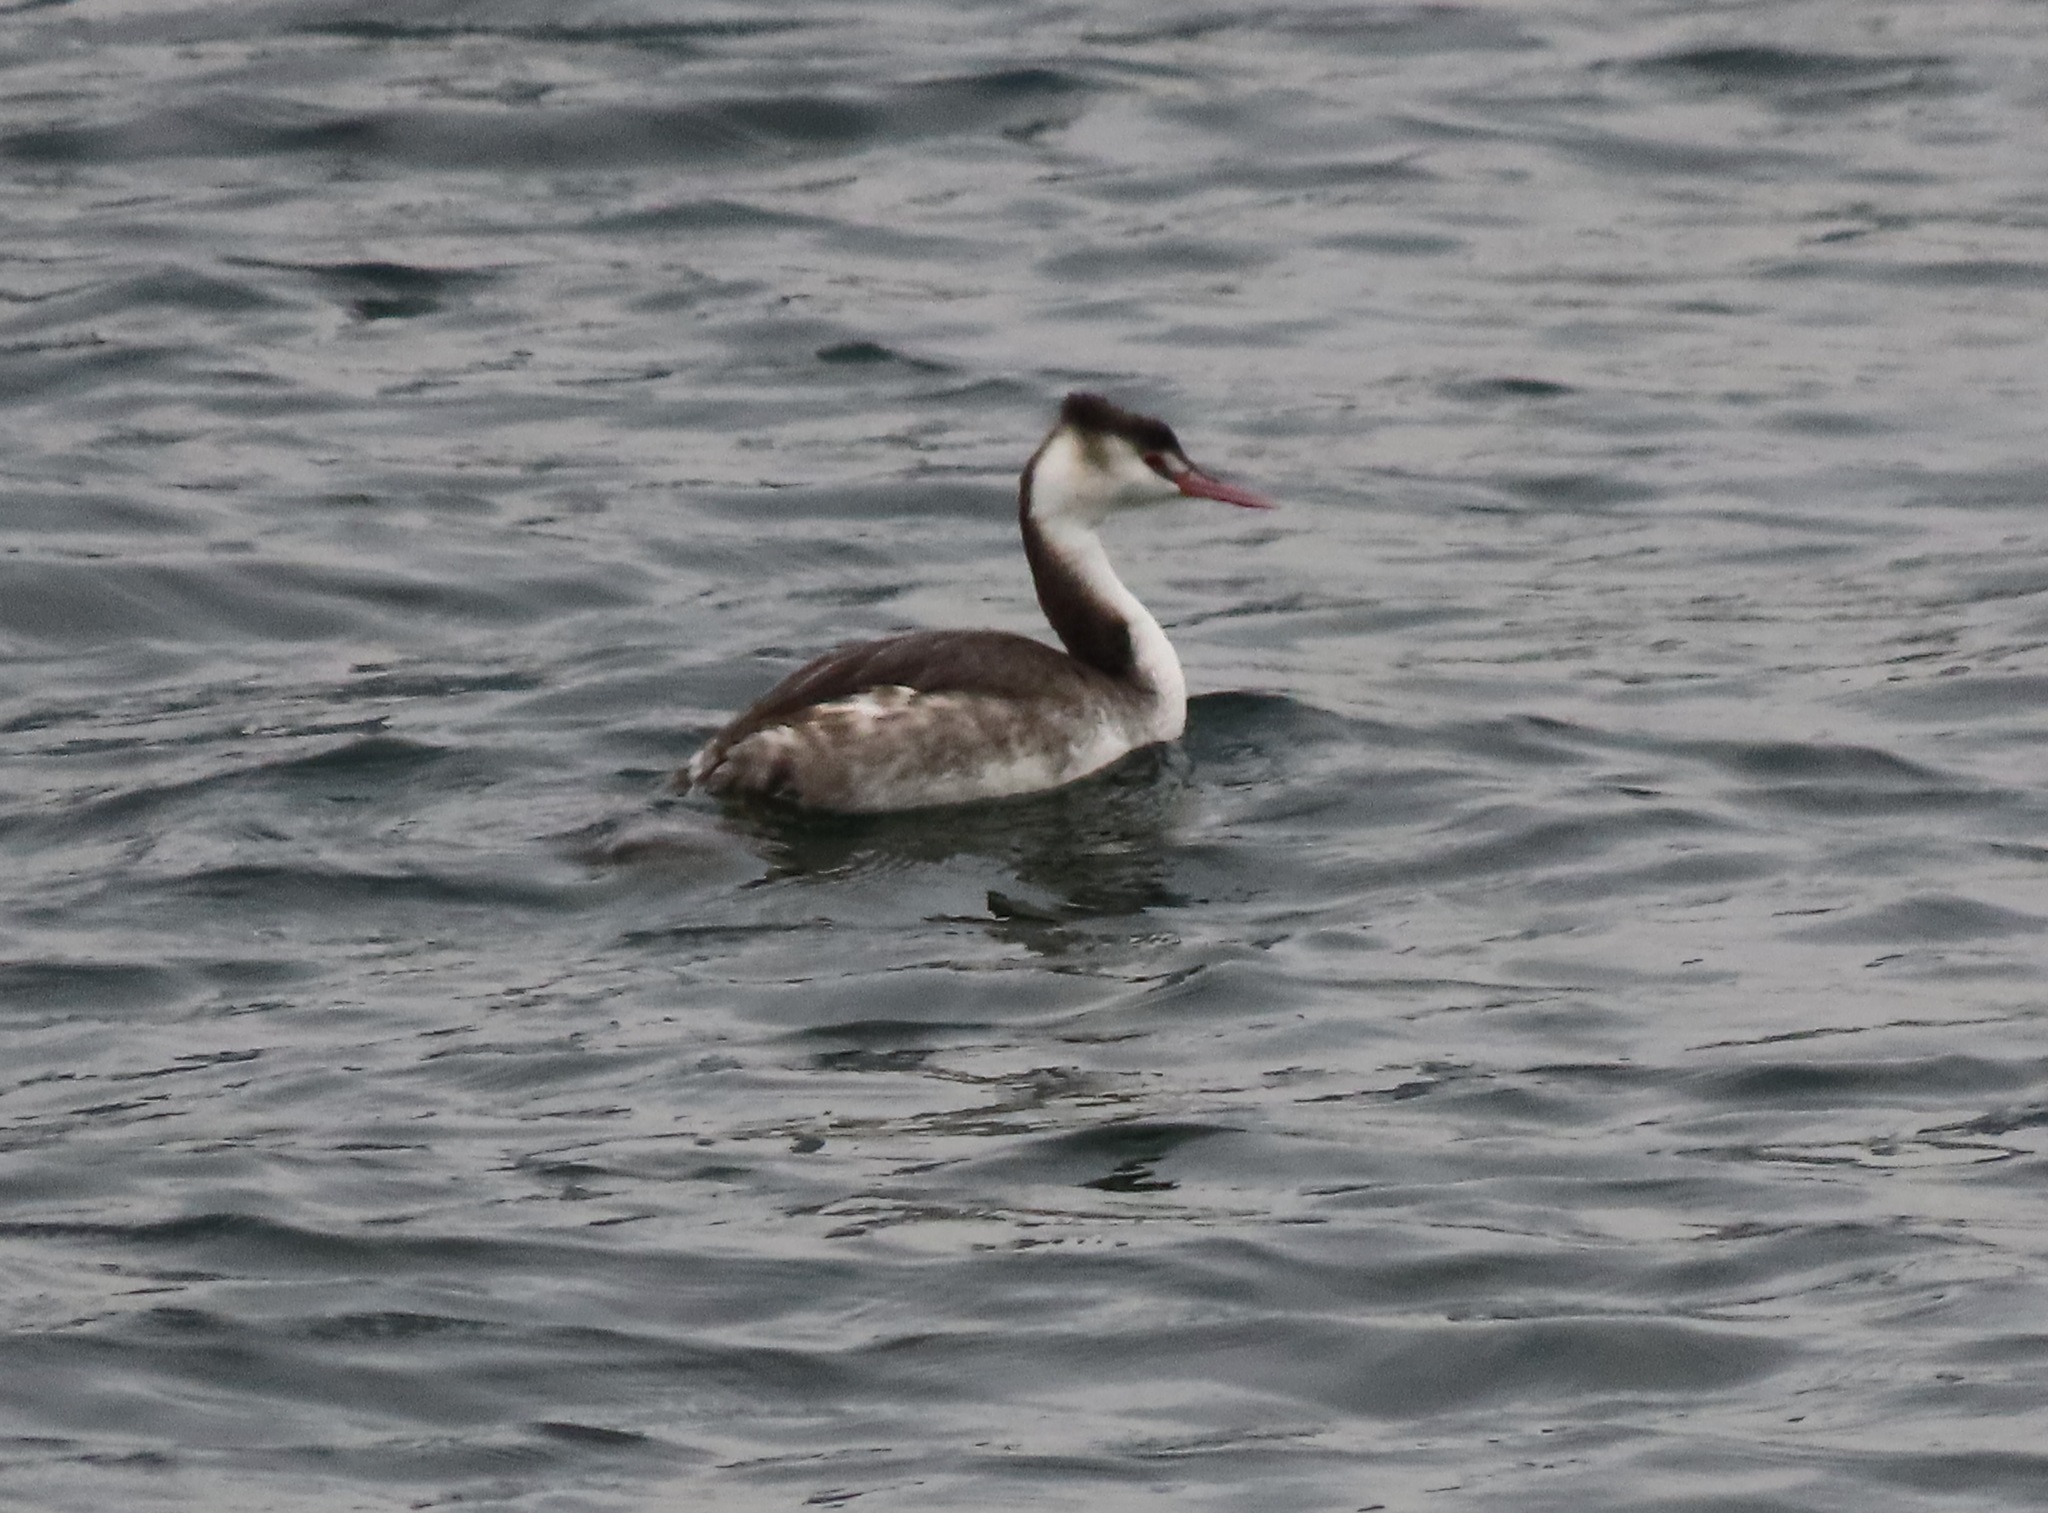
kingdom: Animalia
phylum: Chordata
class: Aves
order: Podicipediformes
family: Podicipedidae
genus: Podiceps
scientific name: Podiceps cristatus
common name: Great crested grebe
